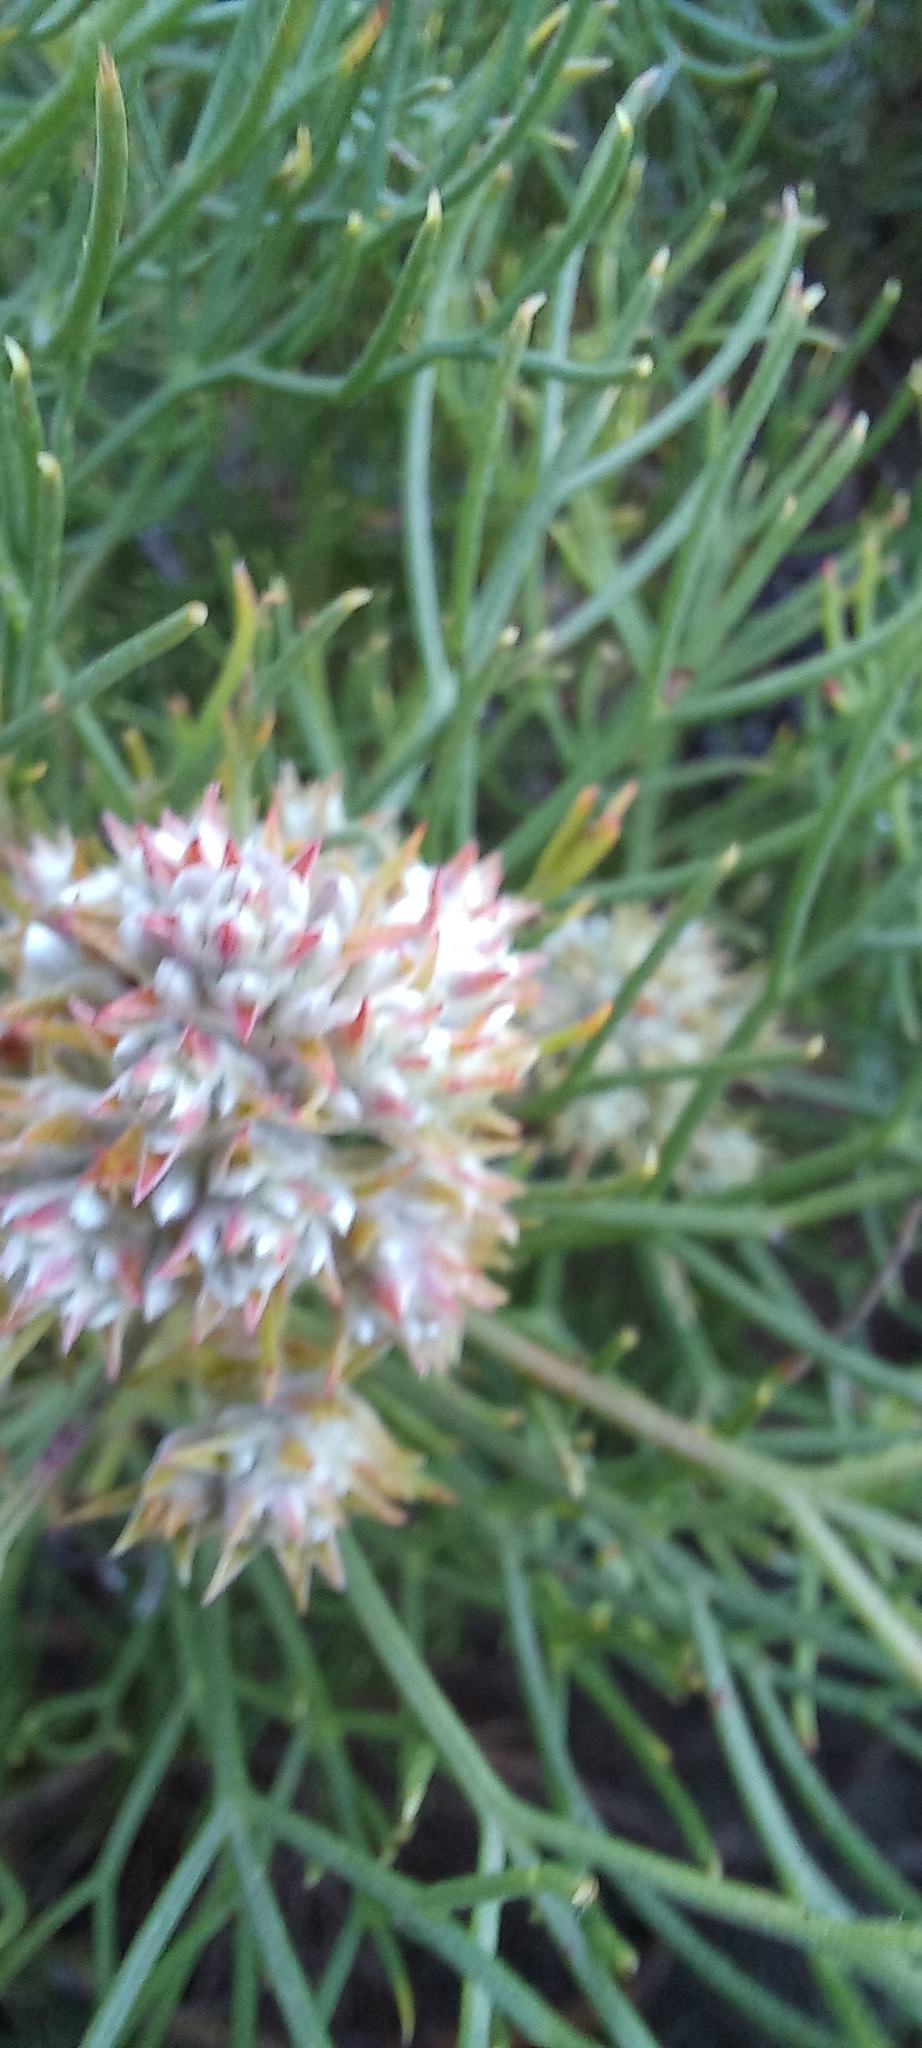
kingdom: Plantae
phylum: Tracheophyta
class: Magnoliopsida
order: Proteales
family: Proteaceae
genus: Serruria
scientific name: Serruria ascendens
